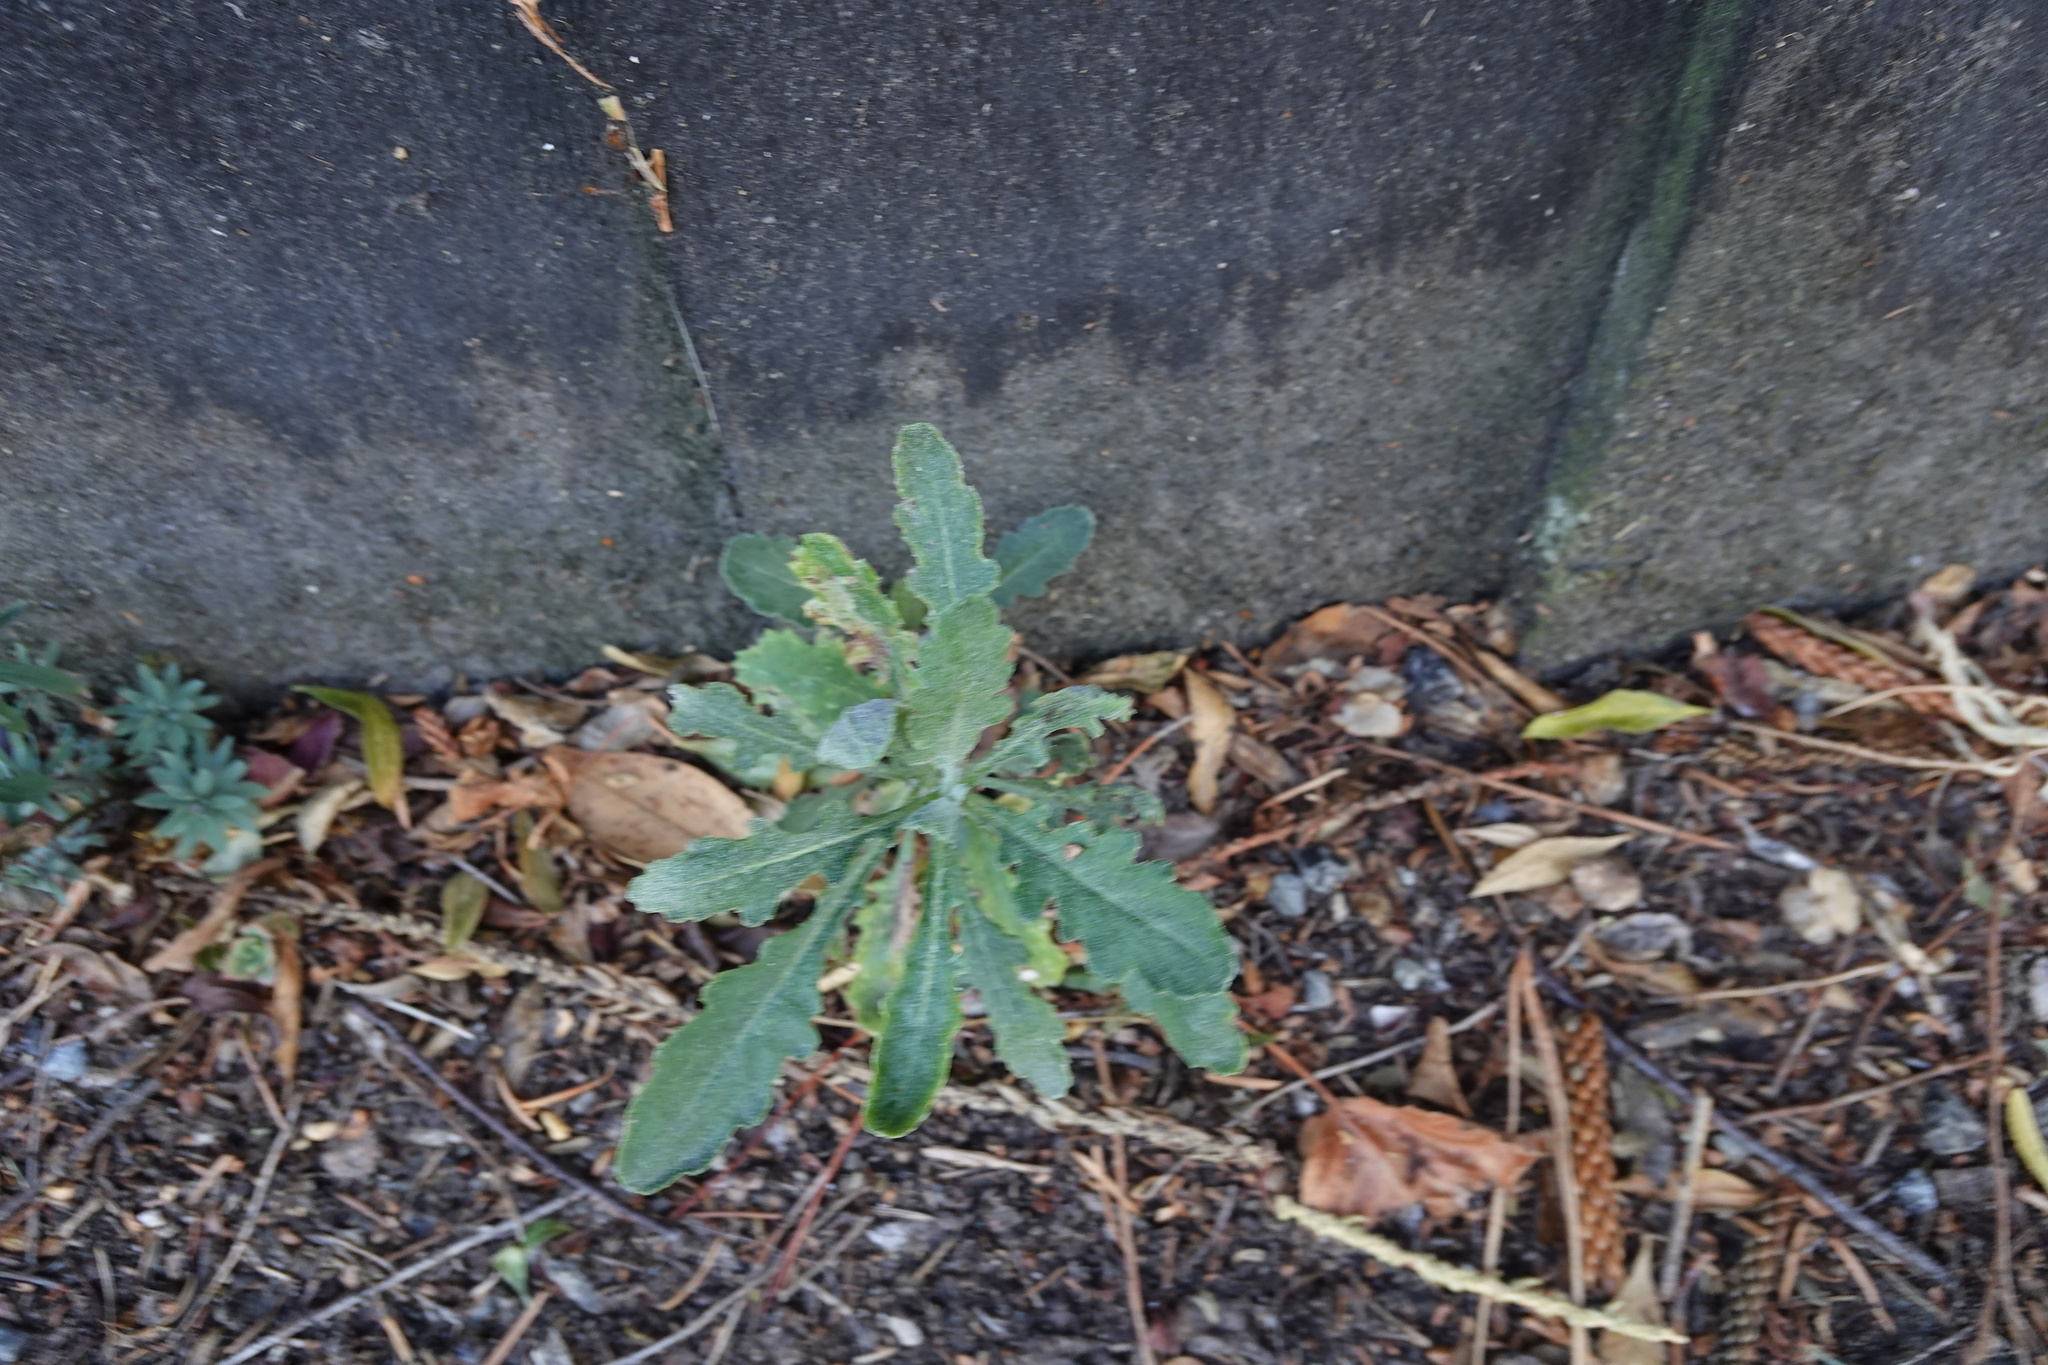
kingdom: Plantae
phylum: Tracheophyta
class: Magnoliopsida
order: Asterales
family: Asteraceae
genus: Senecio
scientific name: Senecio glomeratus
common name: Cutleaf burnweed
